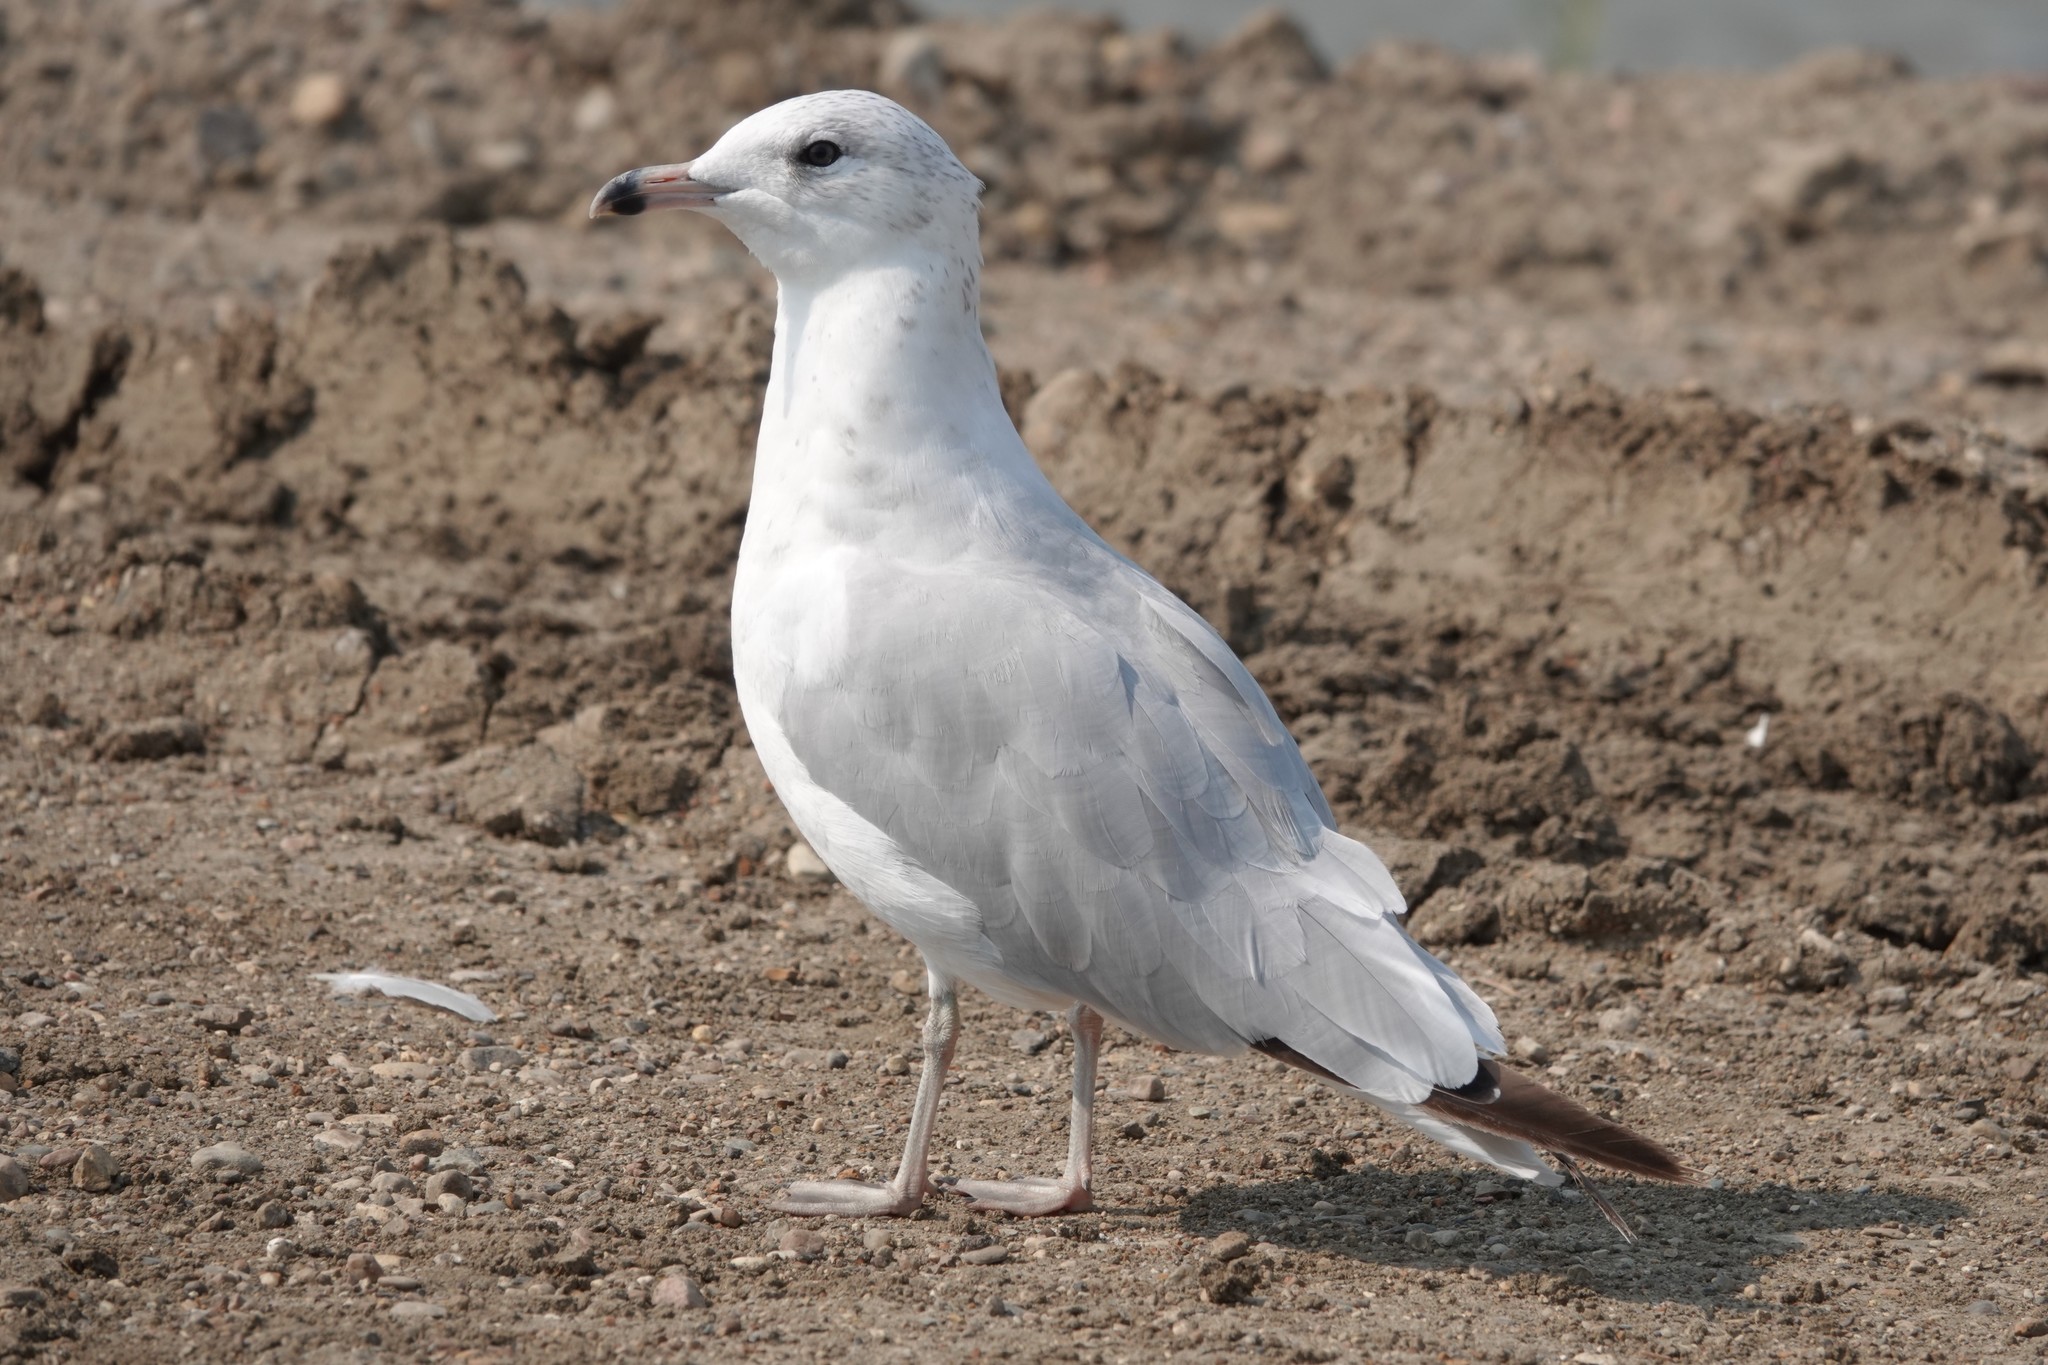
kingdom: Animalia
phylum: Chordata
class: Aves
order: Charadriiformes
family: Laridae
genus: Larus
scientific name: Larus delawarensis
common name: Ring-billed gull
